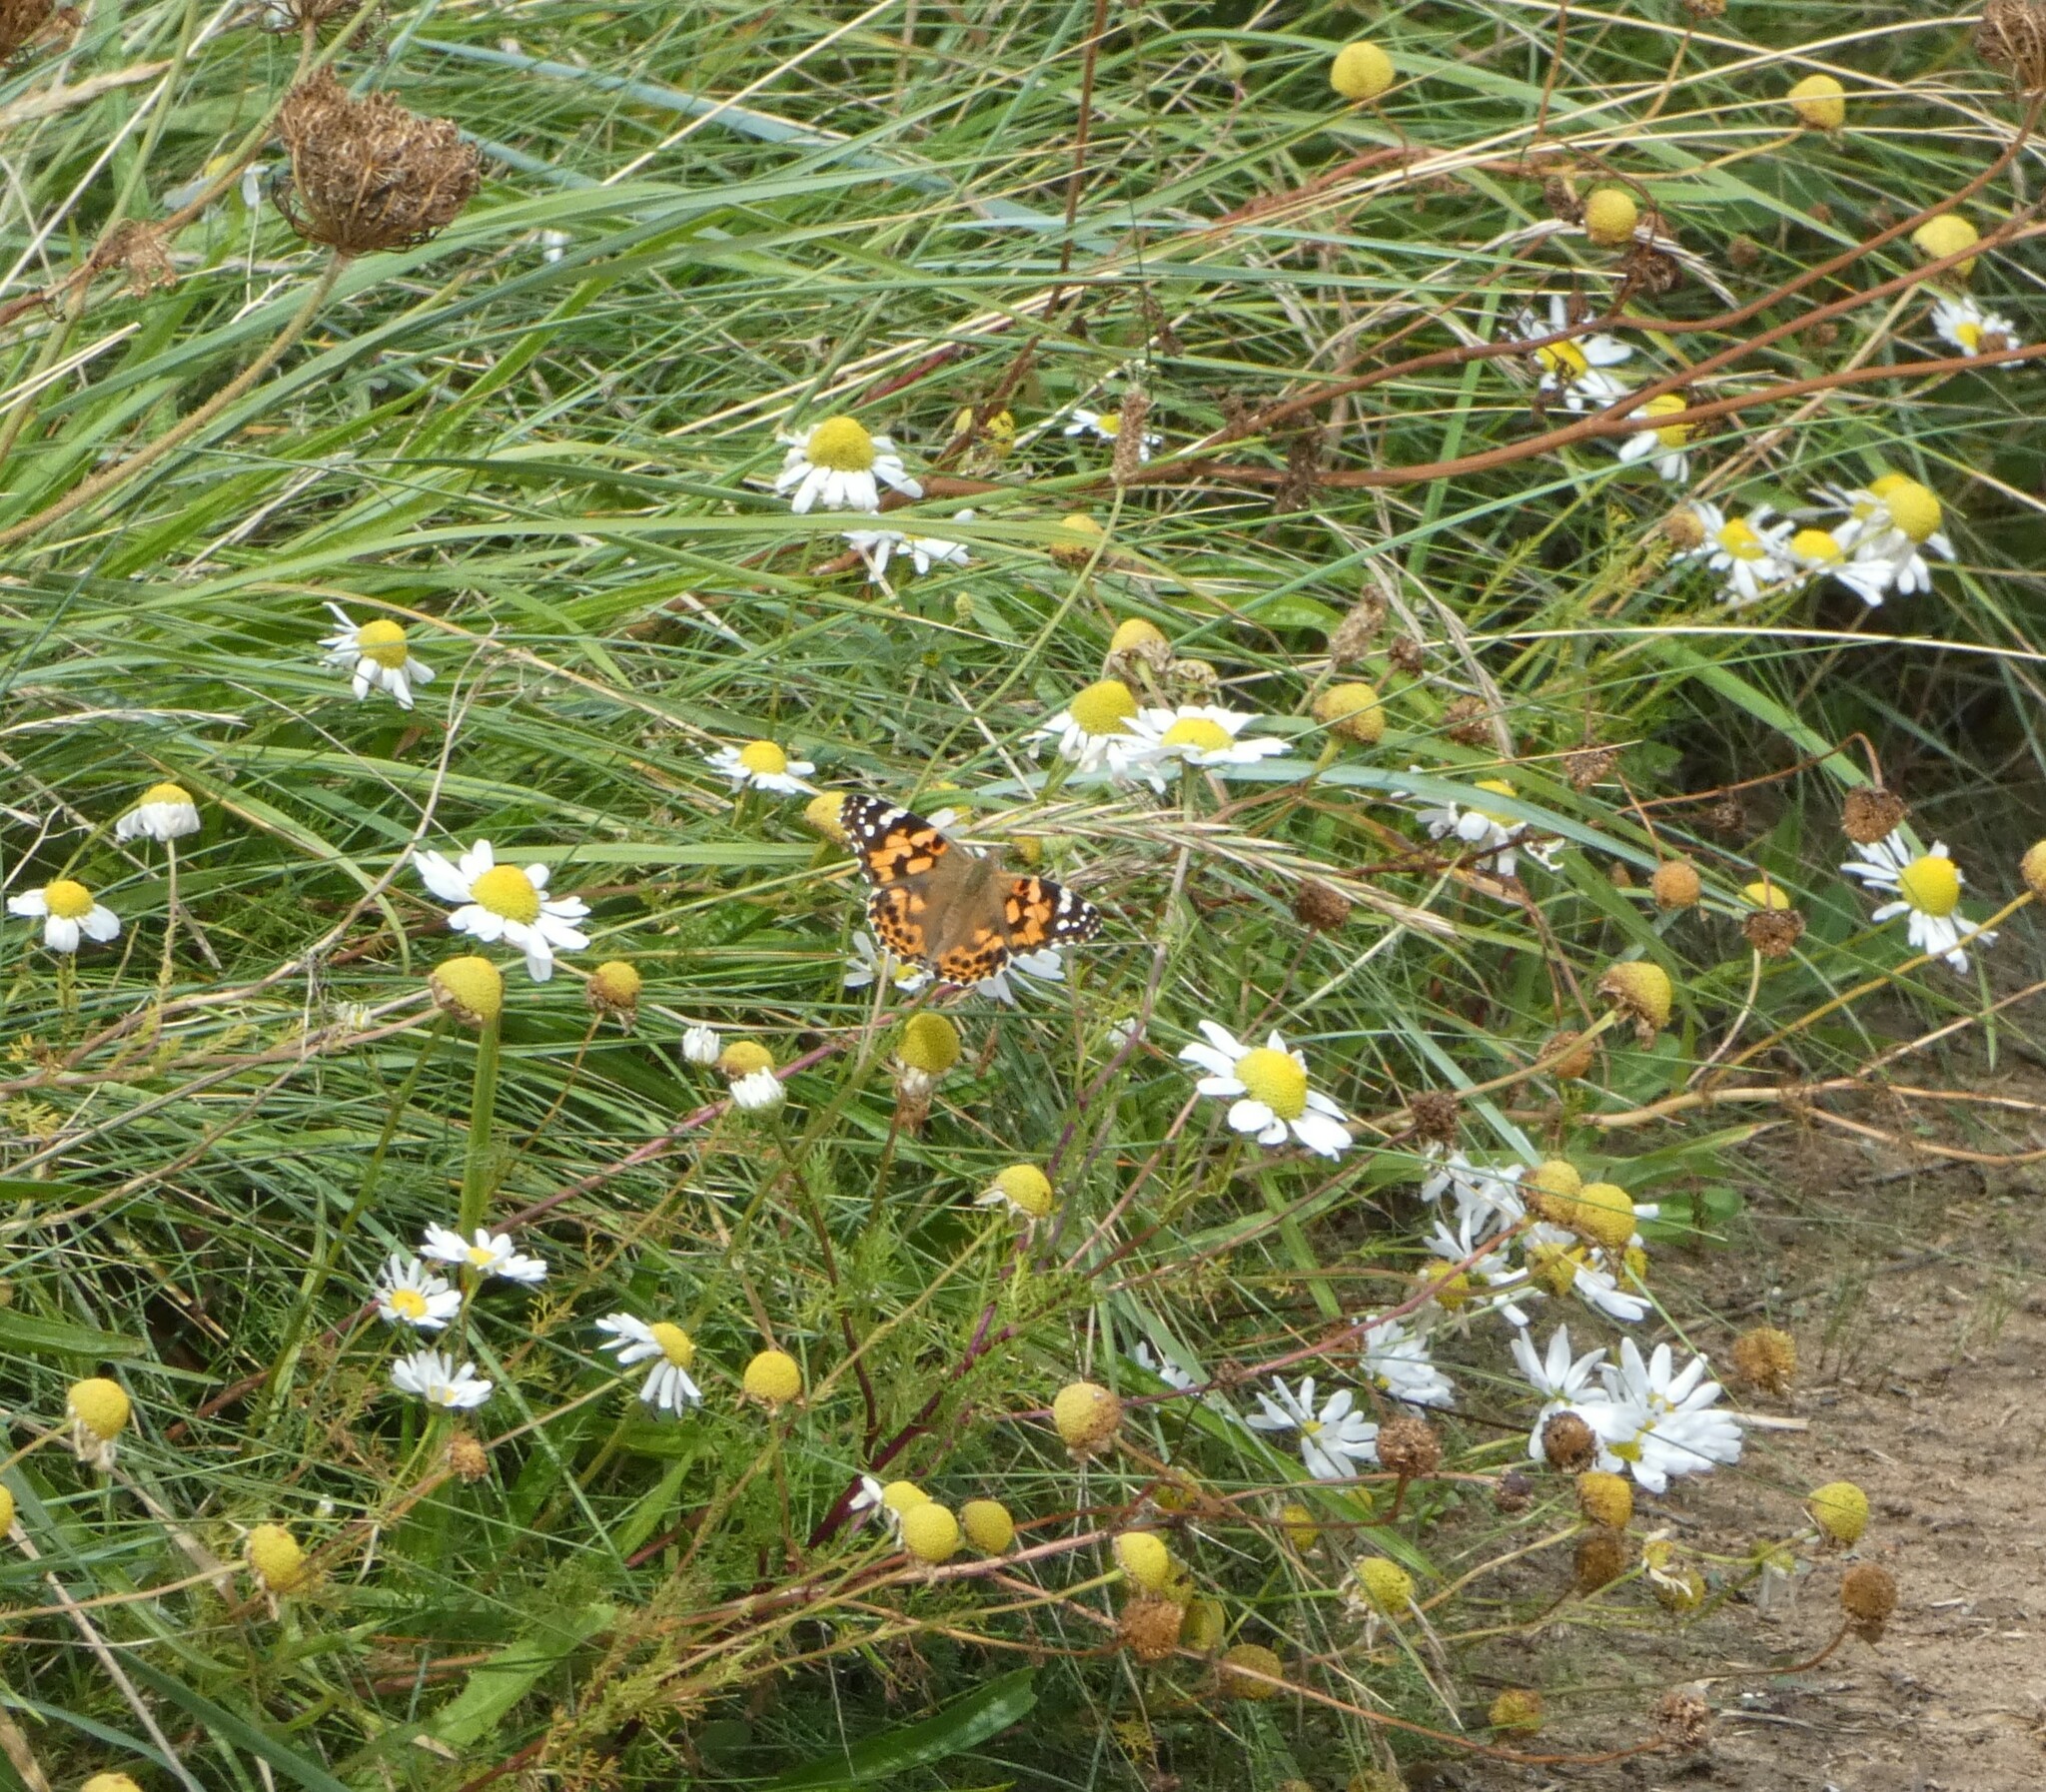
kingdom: Animalia
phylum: Arthropoda
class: Insecta
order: Lepidoptera
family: Nymphalidae
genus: Vanessa
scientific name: Vanessa cardui
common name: Painted lady
